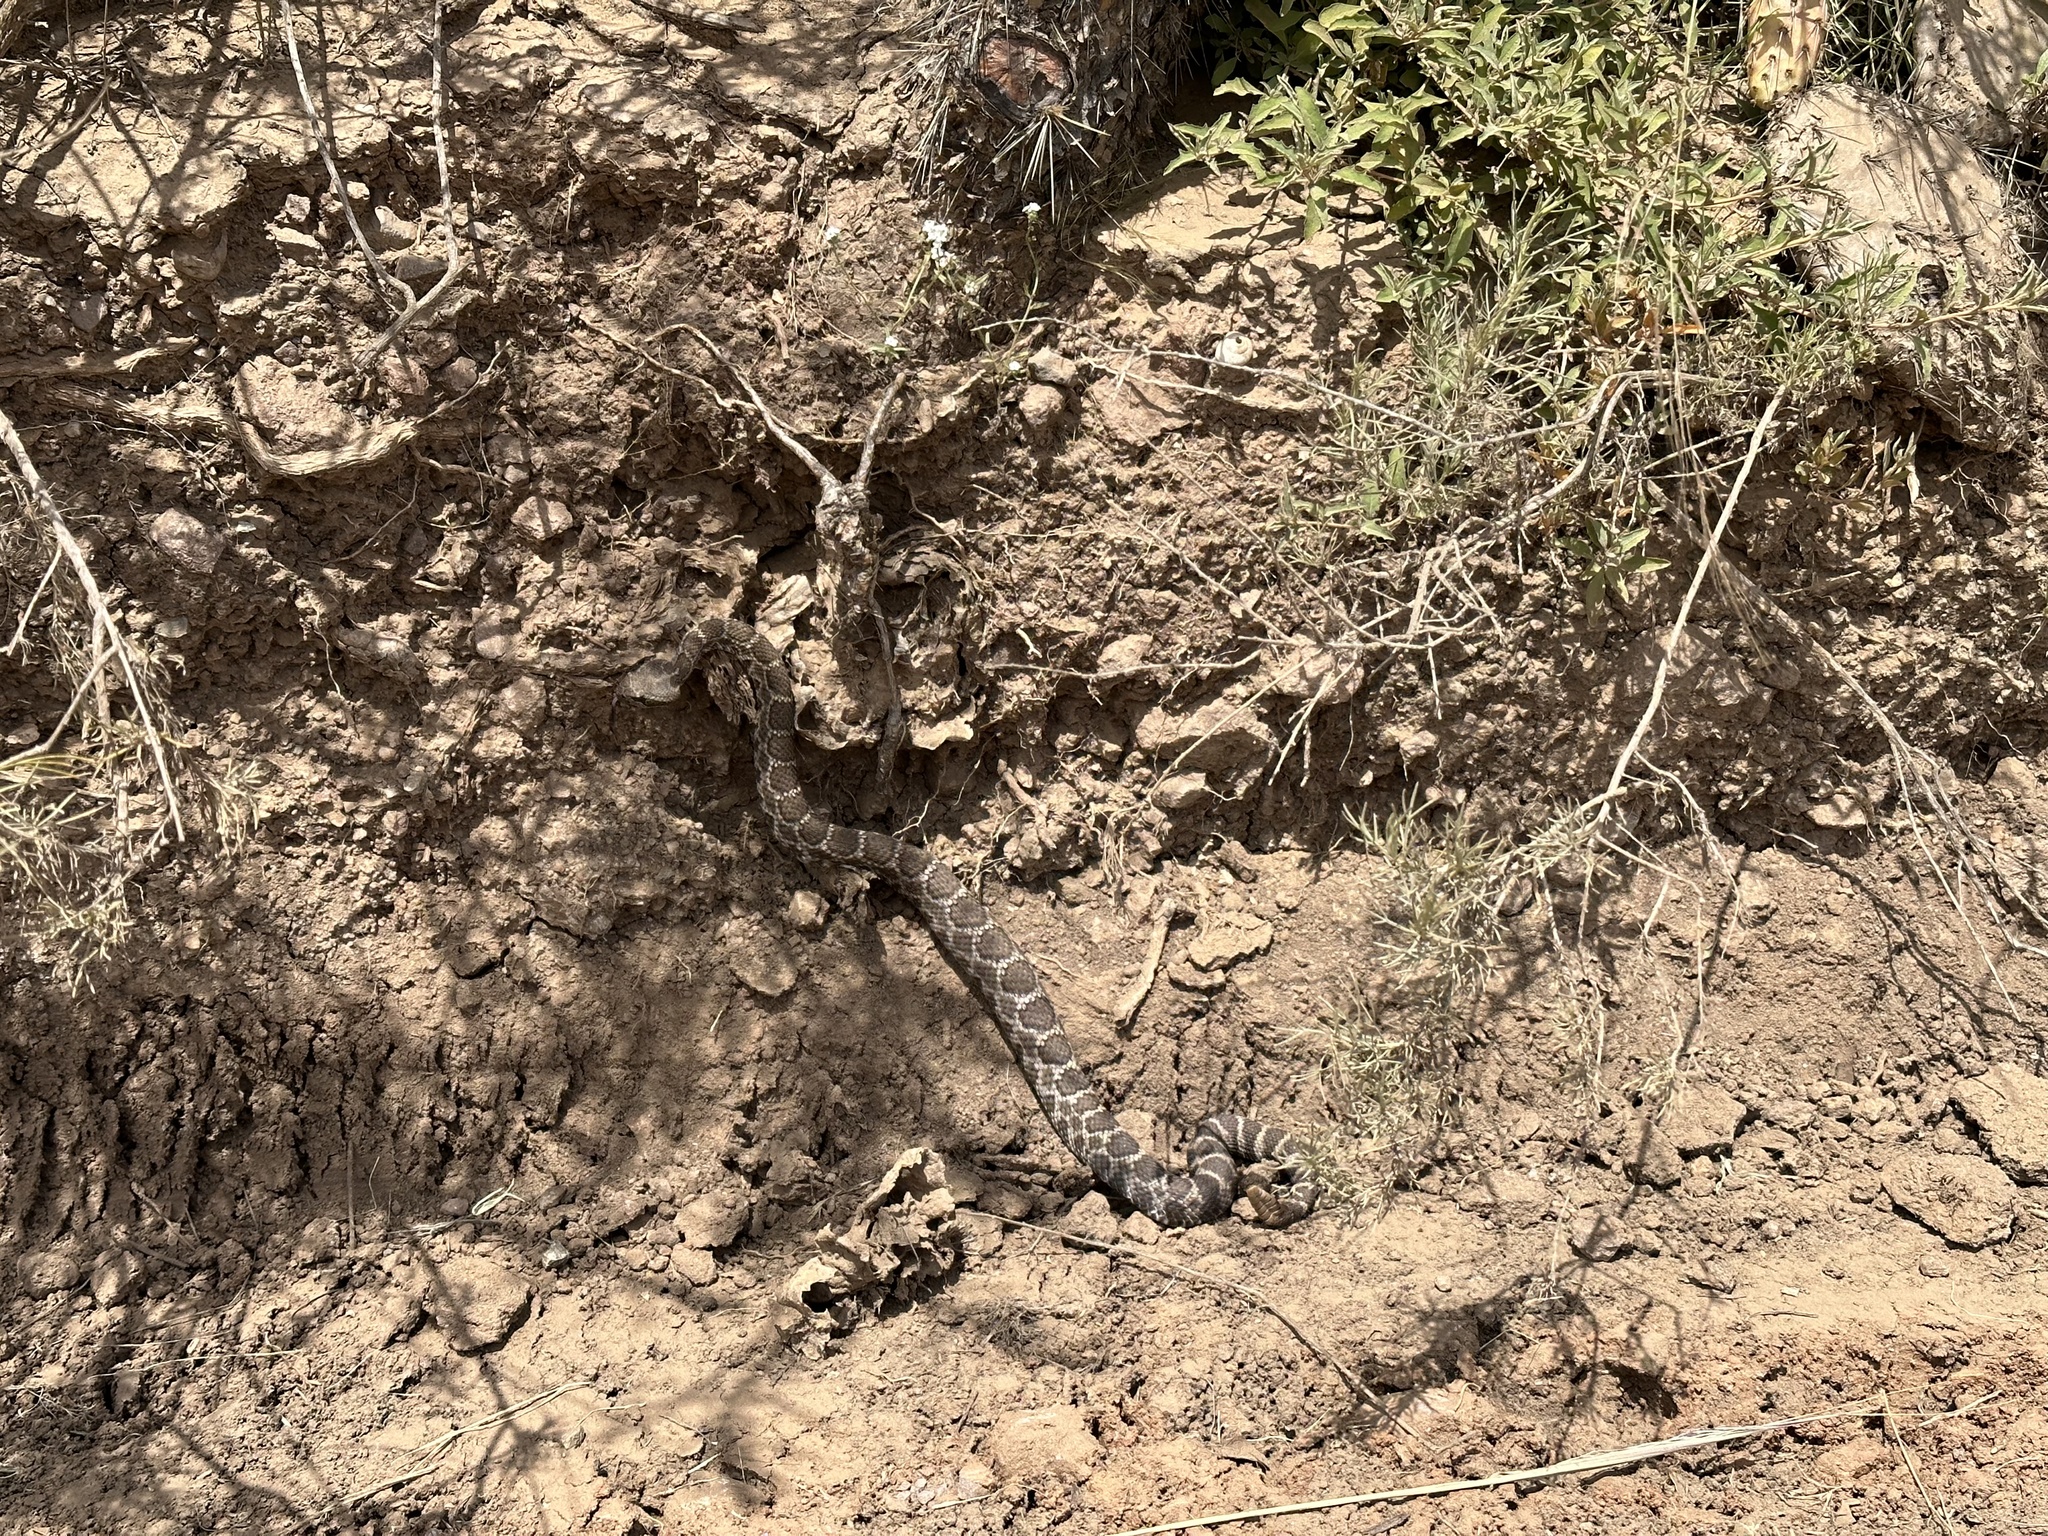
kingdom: Animalia
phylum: Chordata
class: Squamata
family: Viperidae
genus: Crotalus
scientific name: Crotalus oreganus
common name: Abyssus
